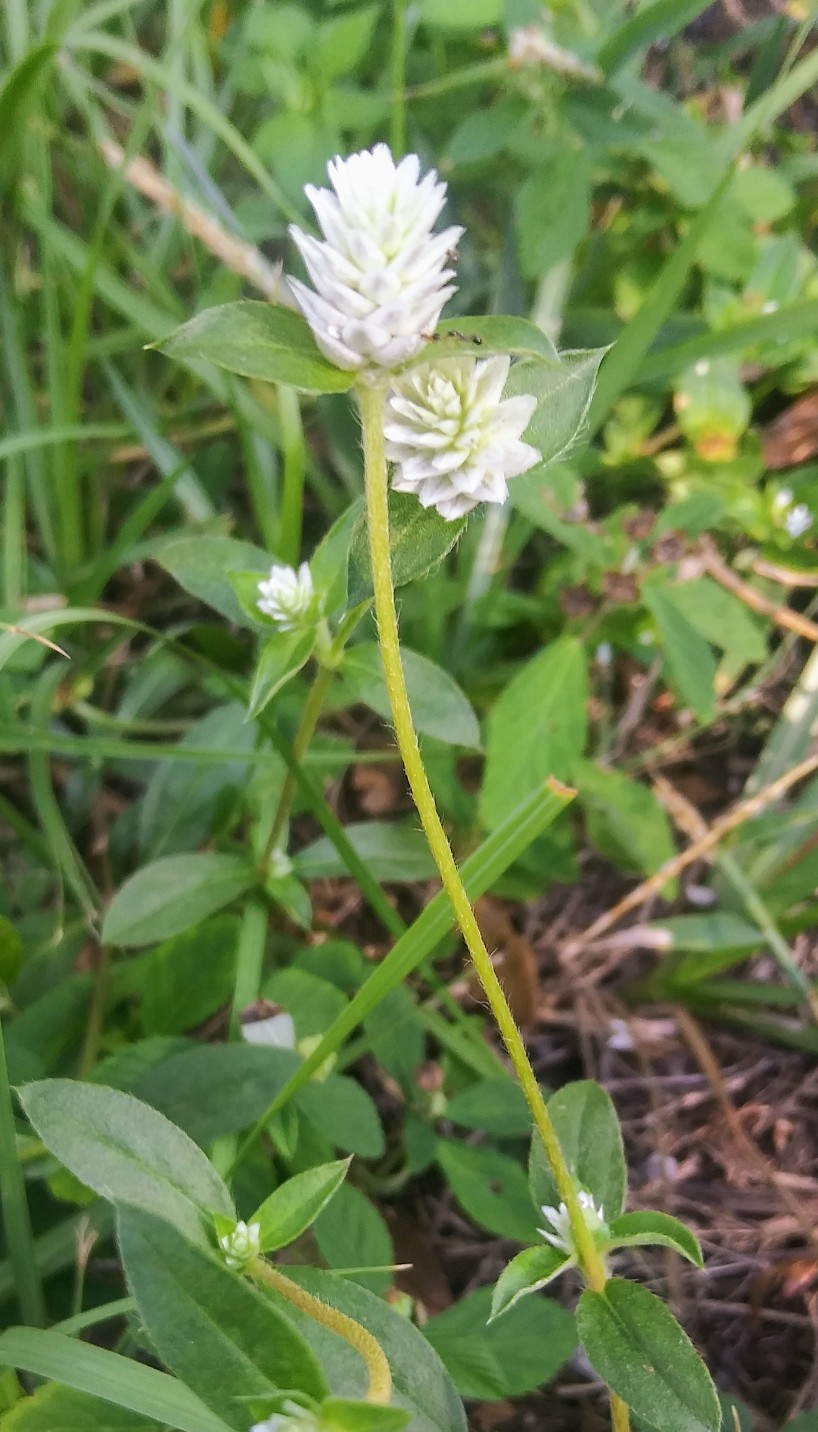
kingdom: Plantae
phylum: Tracheophyta
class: Magnoliopsida
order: Caryophyllales
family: Amaranthaceae
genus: Gomphrena
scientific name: Gomphrena serrata
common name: Arrasa con todo
